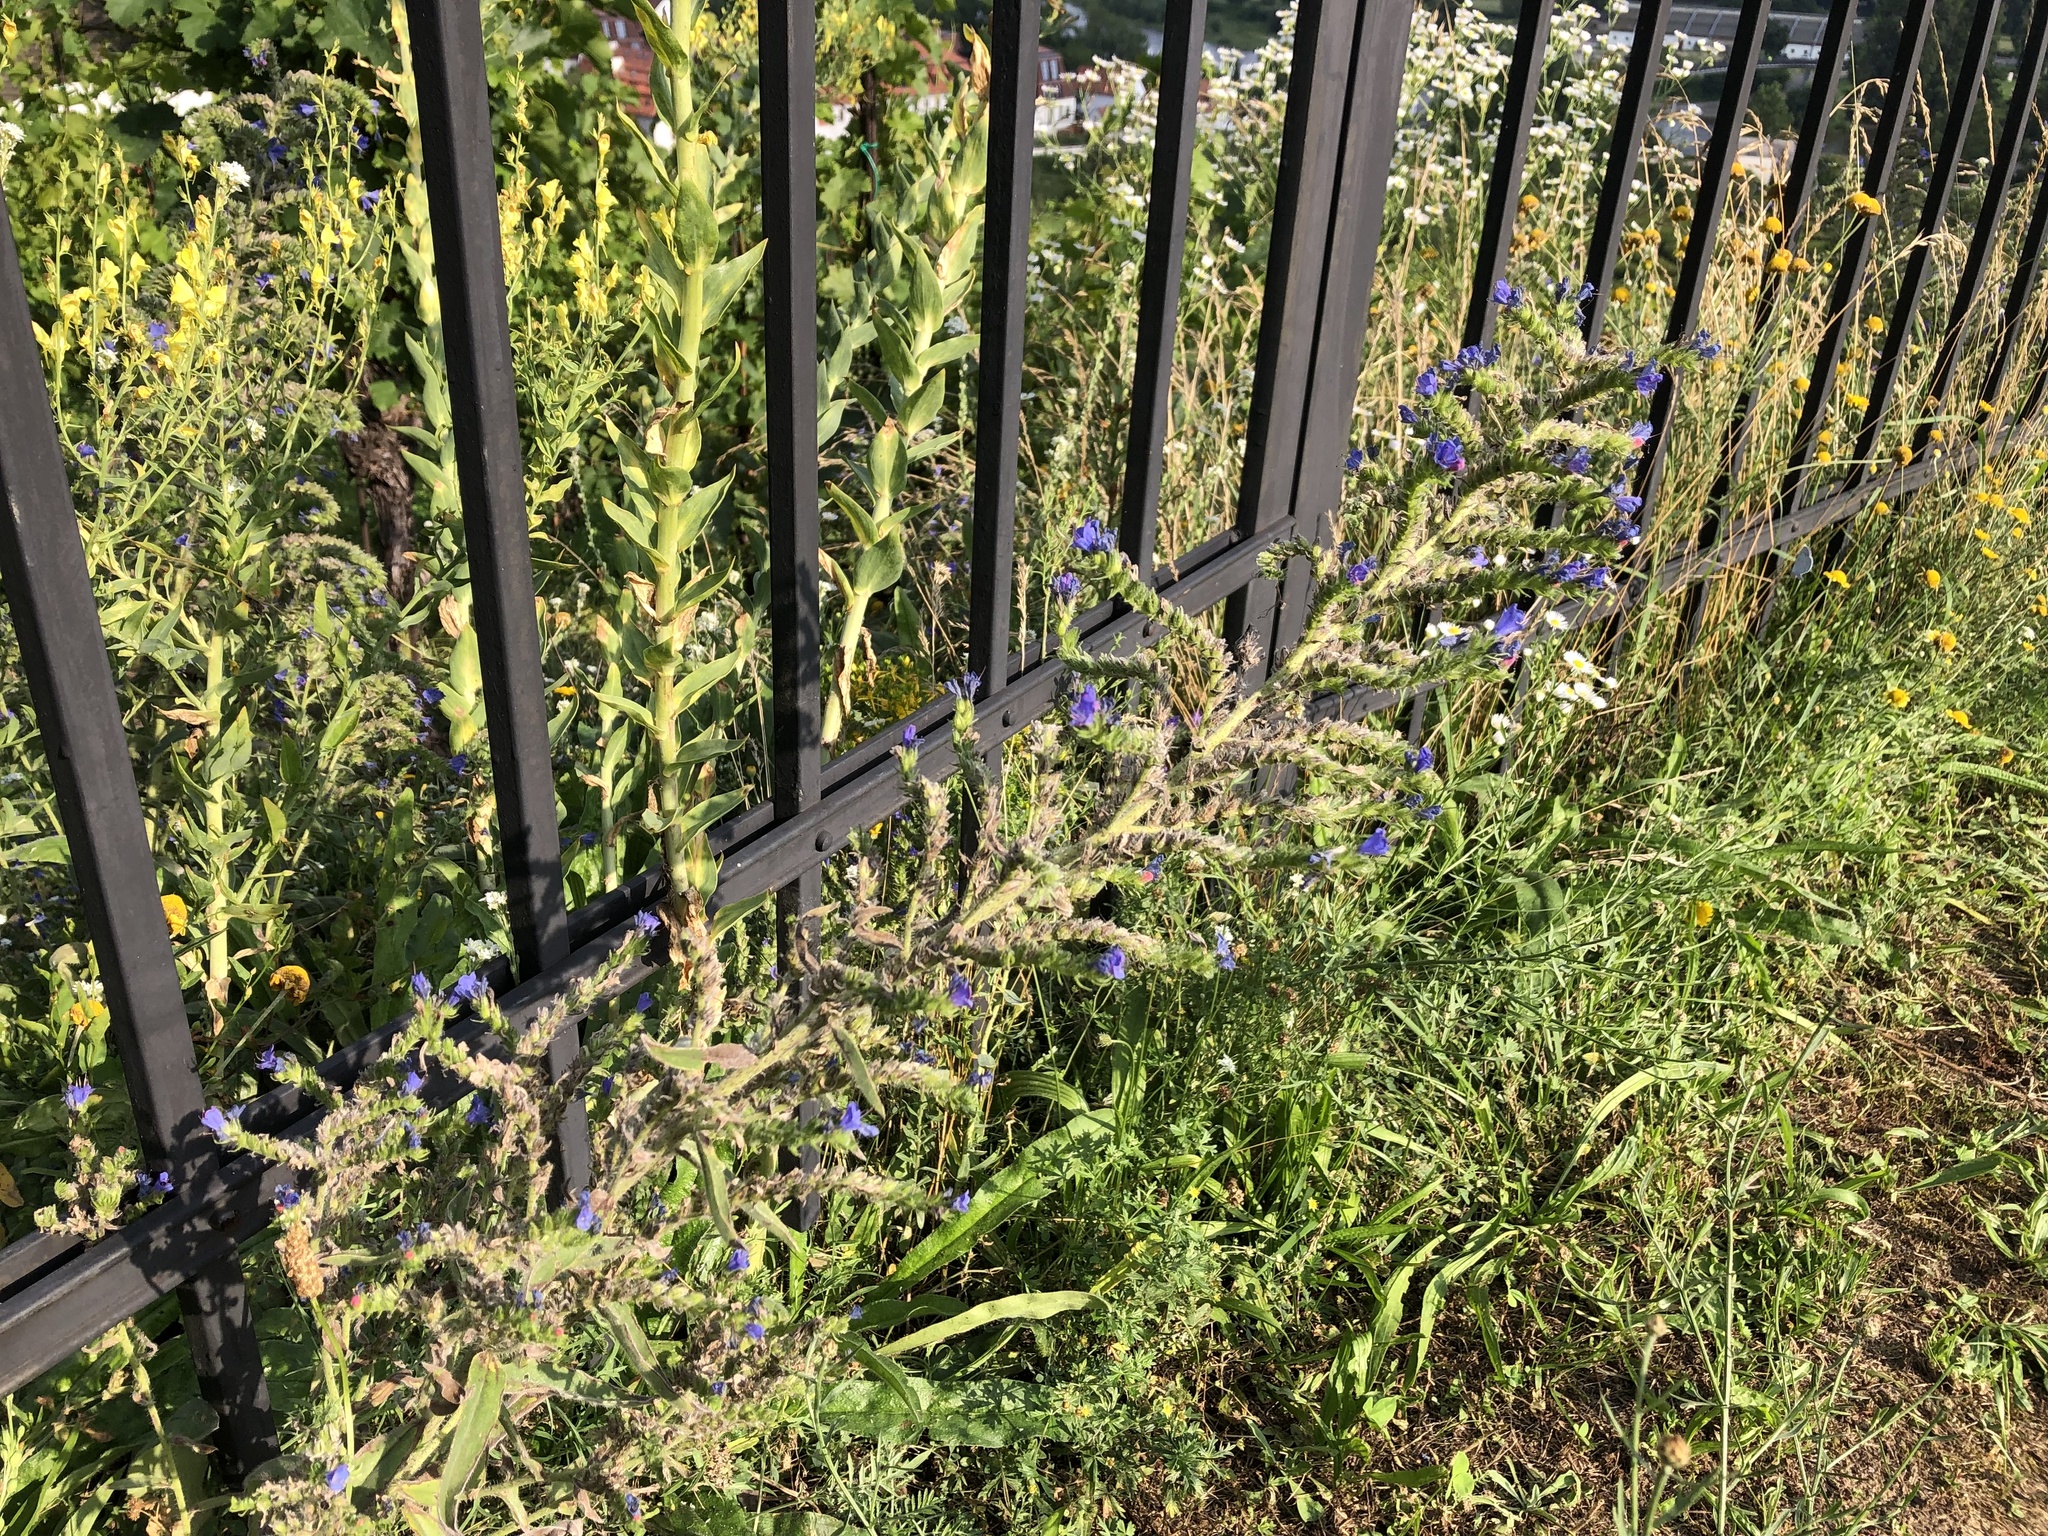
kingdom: Plantae
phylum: Tracheophyta
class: Magnoliopsida
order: Boraginales
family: Boraginaceae
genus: Echium
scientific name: Echium vulgare
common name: Common viper's bugloss
